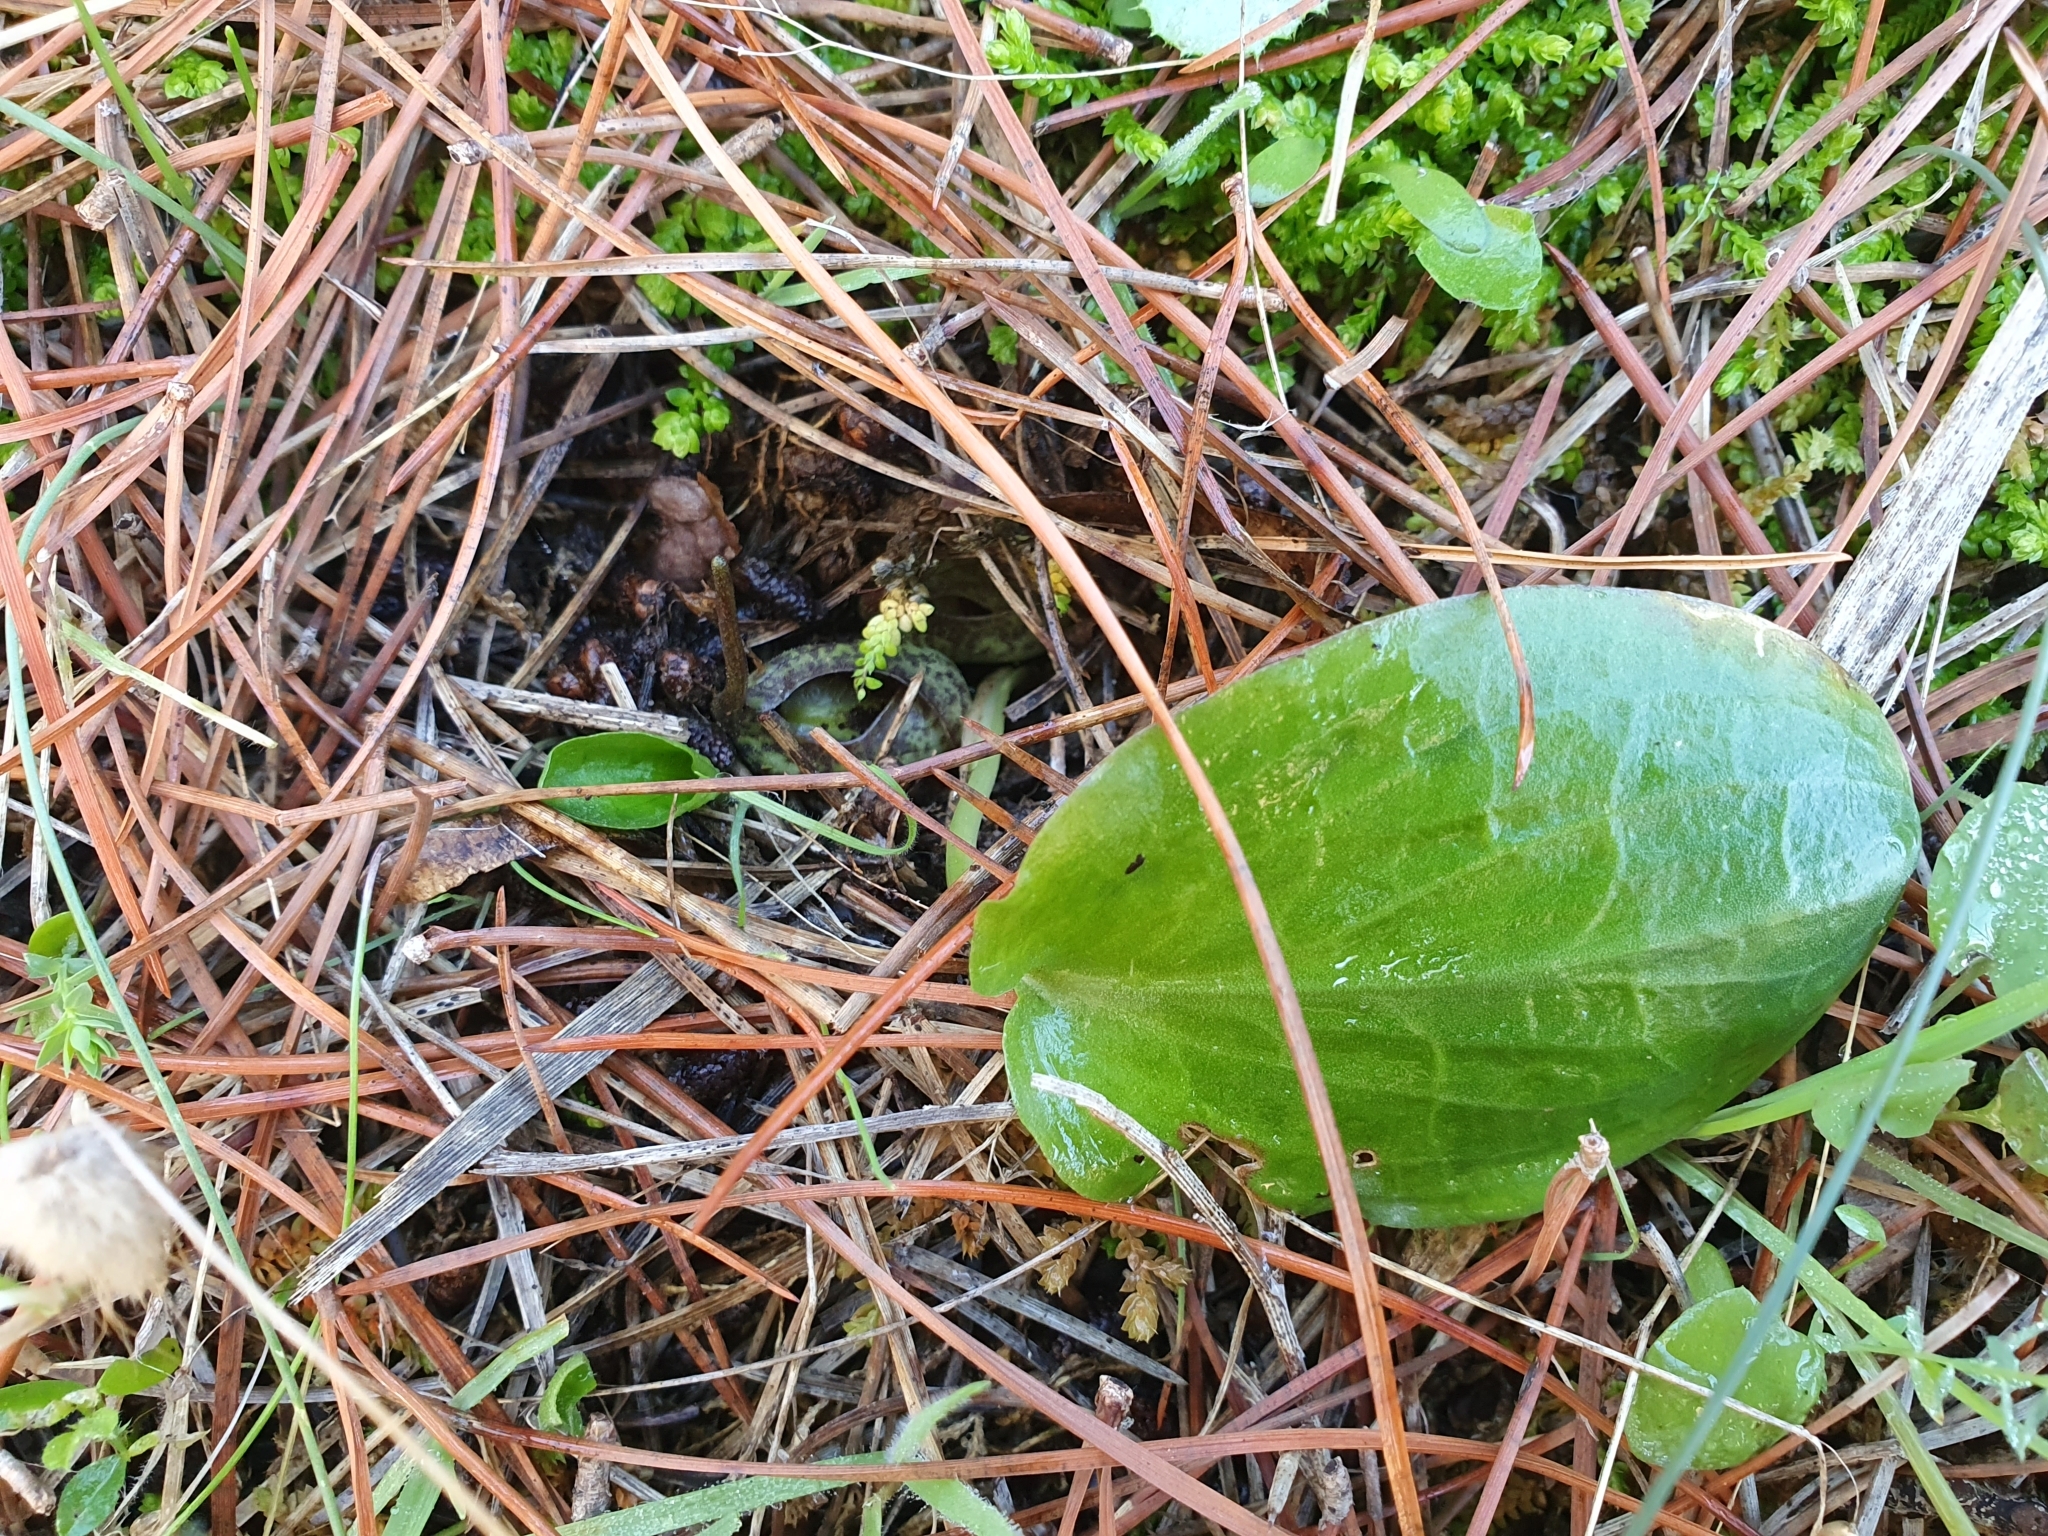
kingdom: Plantae
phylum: Tracheophyta
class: Liliopsida
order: Alismatales
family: Araceae
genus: Ambrosina
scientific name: Ambrosina bassii
